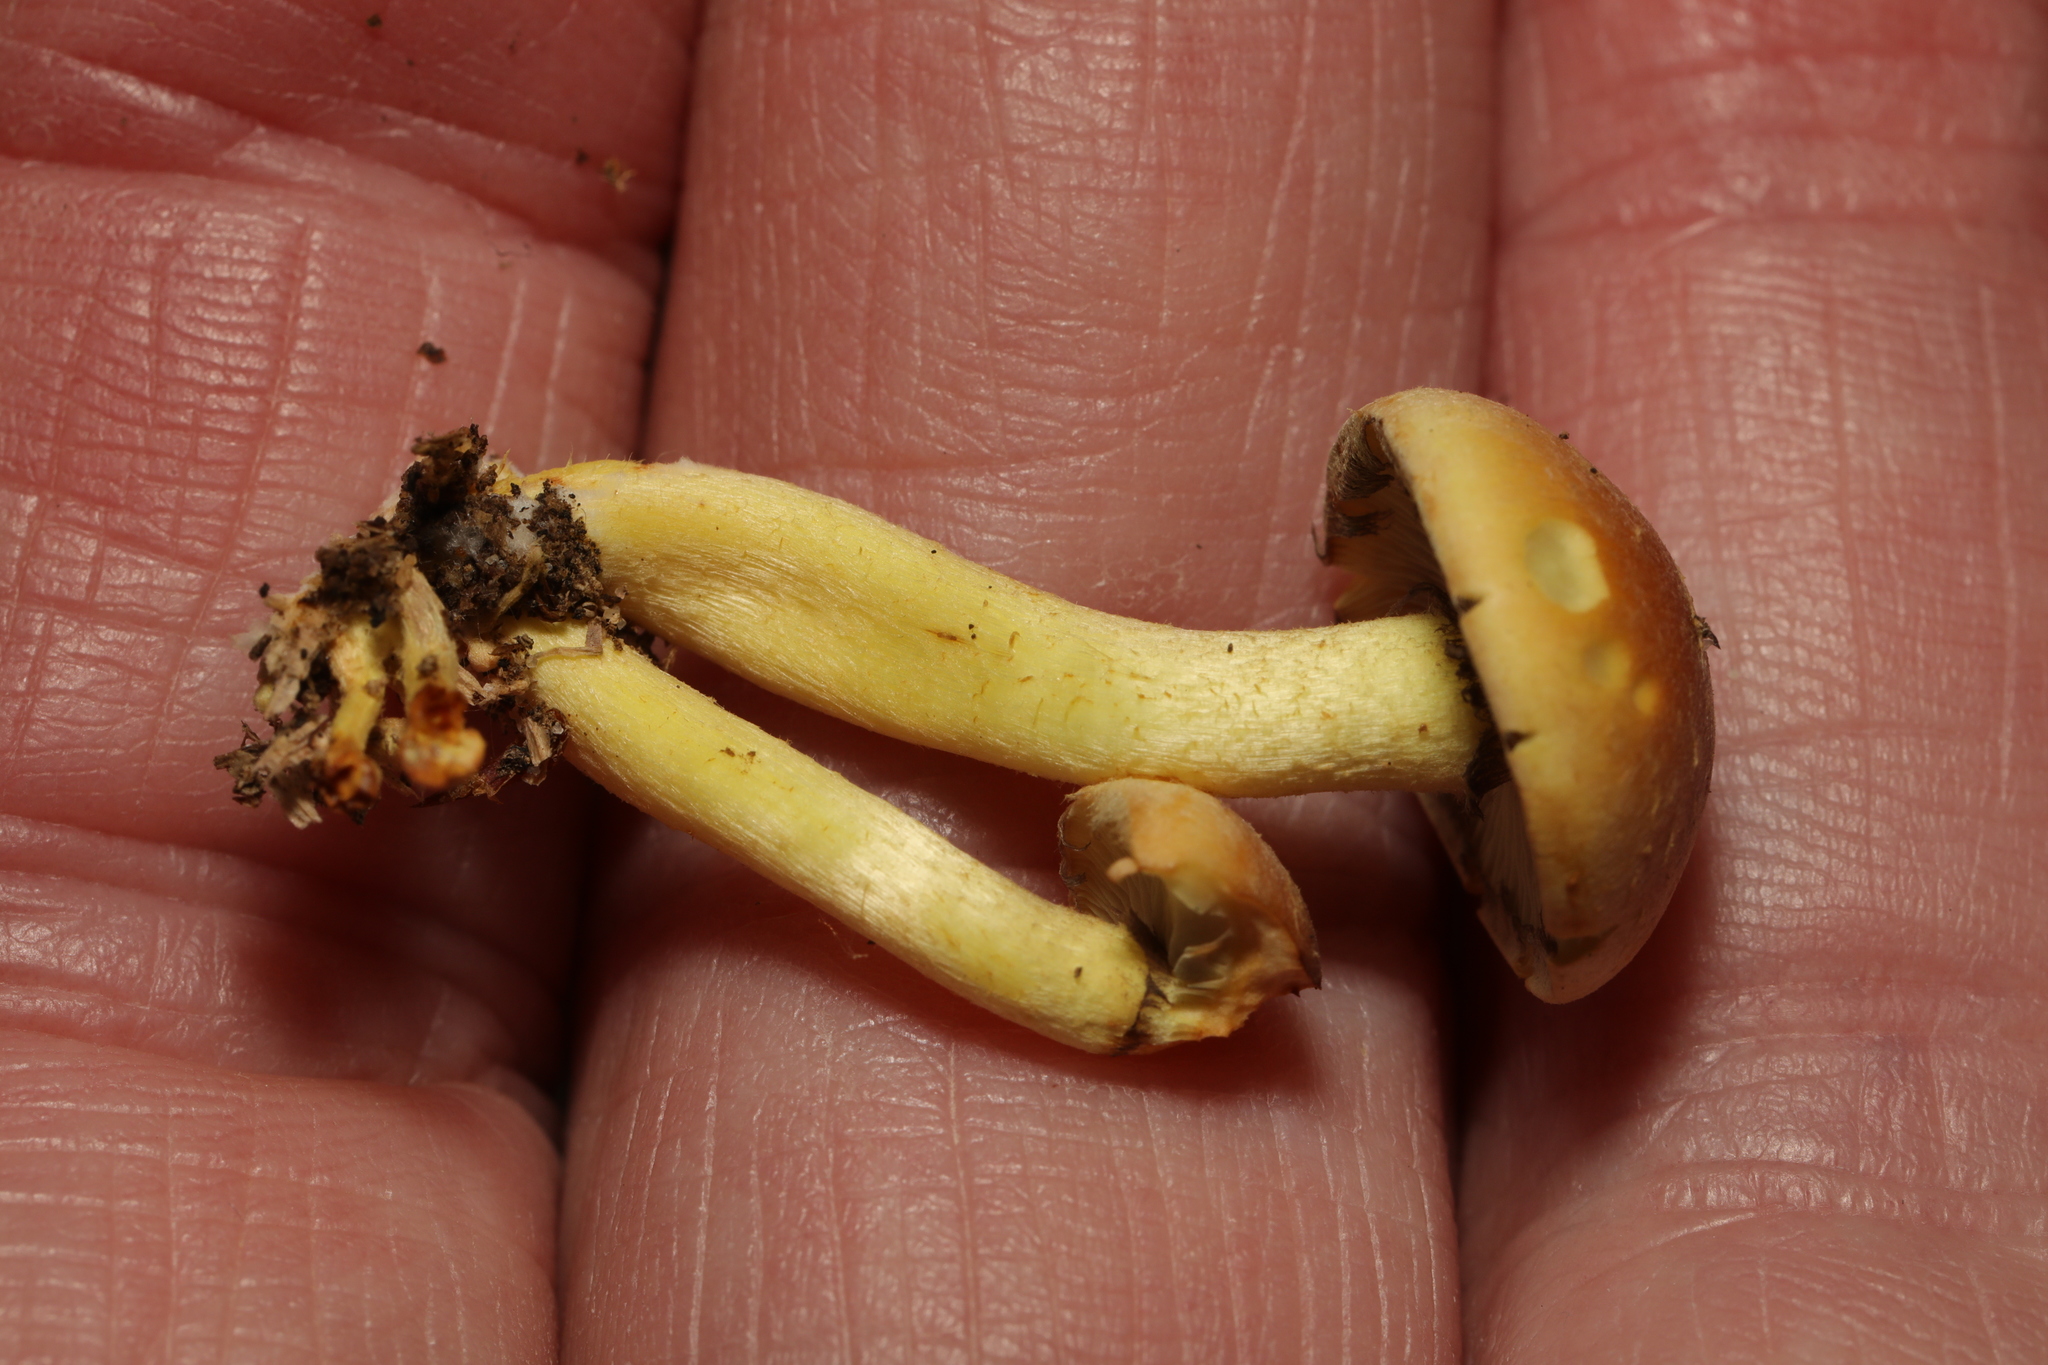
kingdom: Fungi
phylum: Basidiomycota
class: Agaricomycetes
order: Agaricales
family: Strophariaceae
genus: Hypholoma
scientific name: Hypholoma fasciculare
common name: Sulphur tuft
